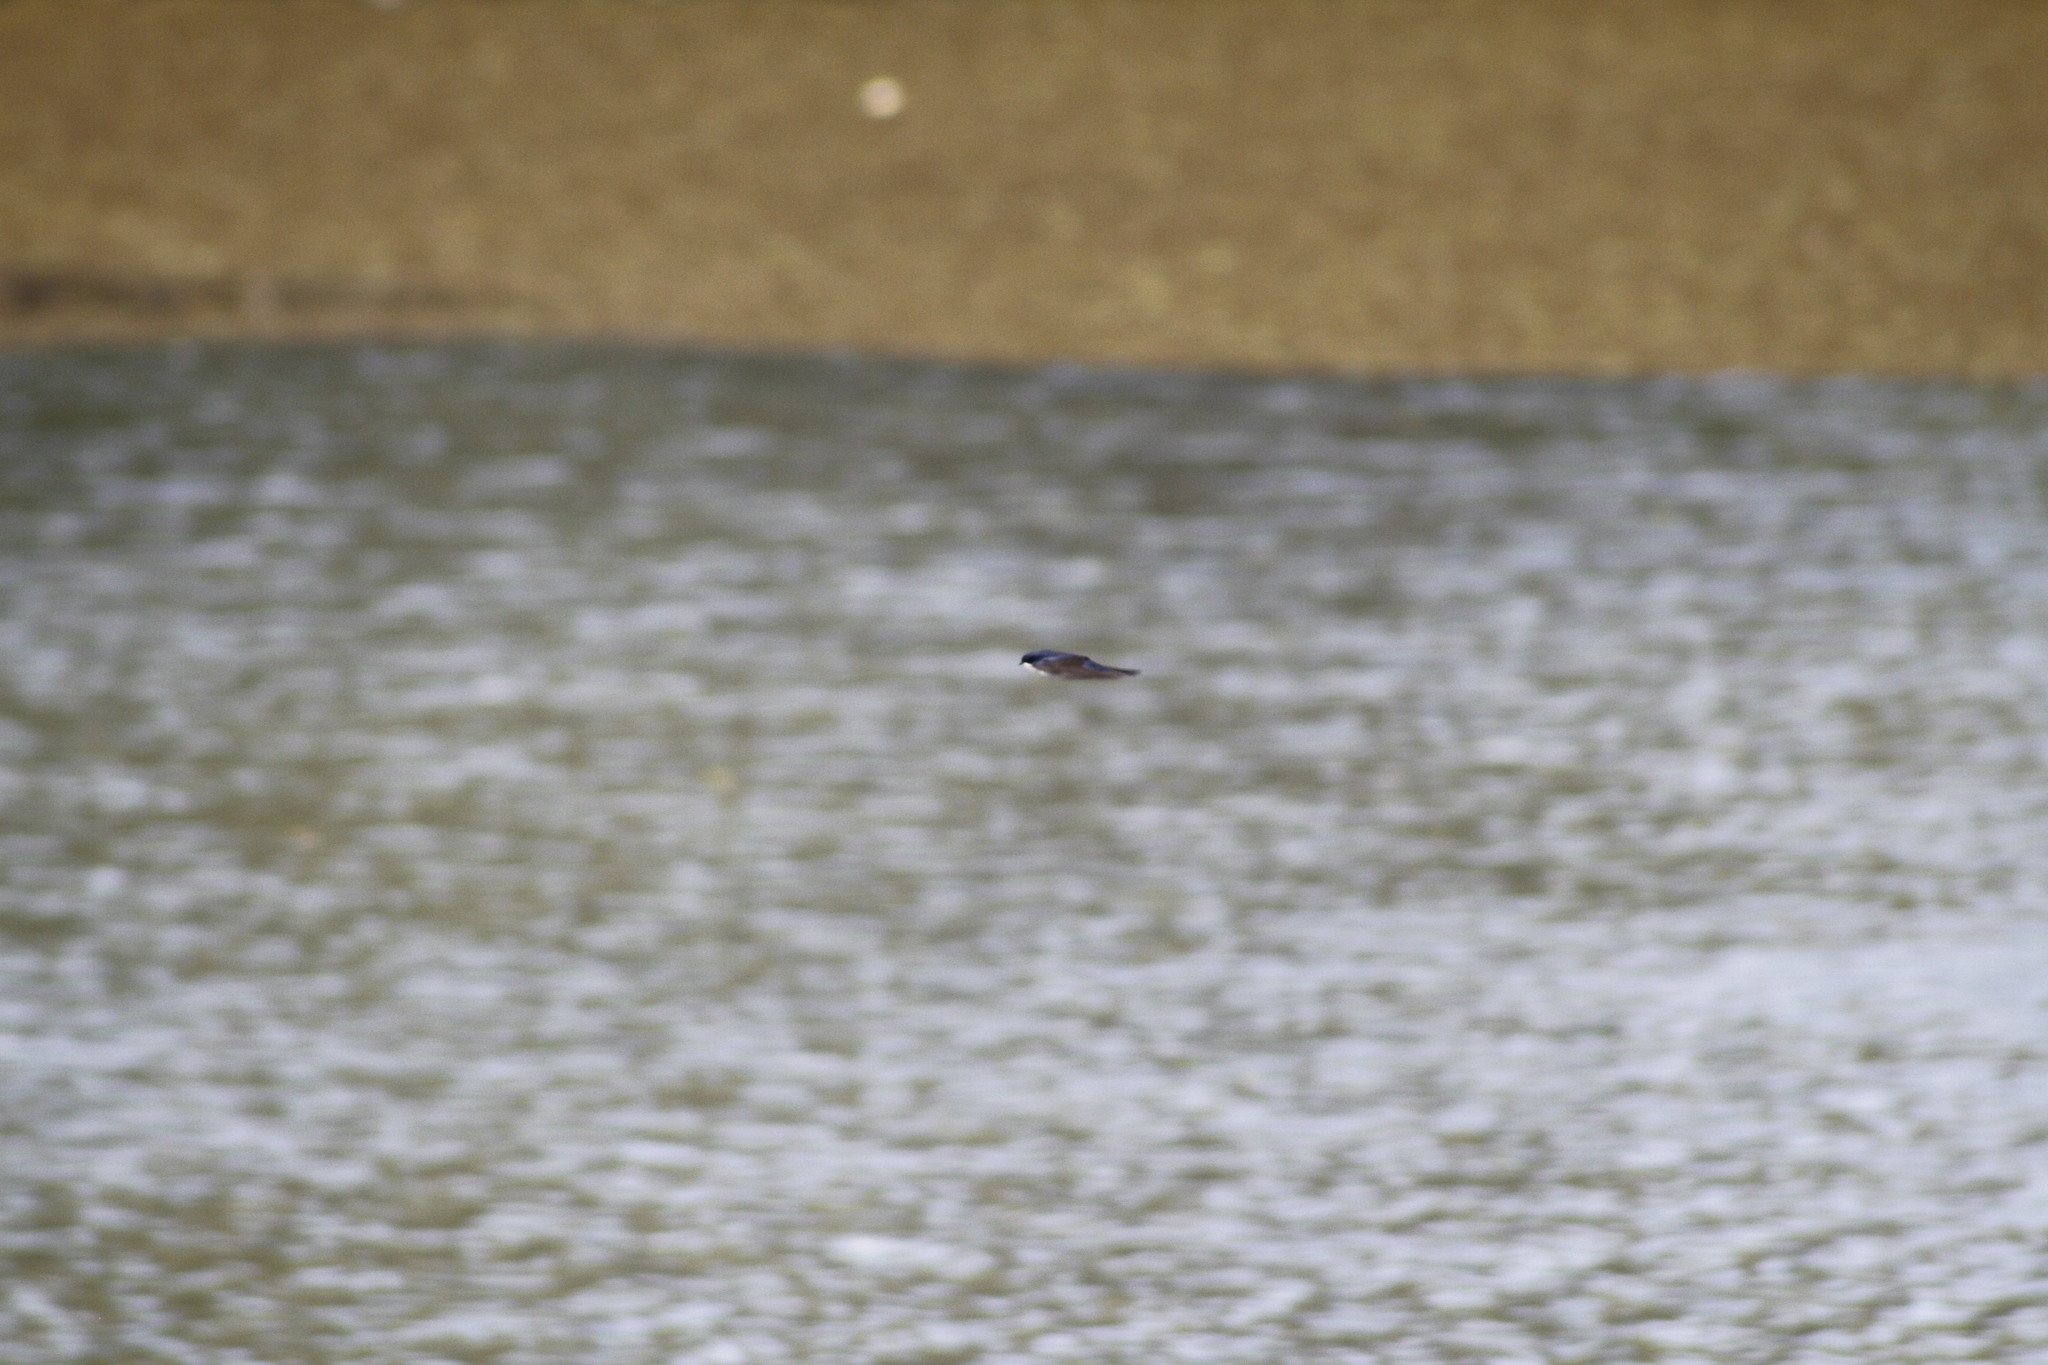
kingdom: Animalia
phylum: Chordata
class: Aves
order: Passeriformes
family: Hirundinidae
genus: Notiochelidon
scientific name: Notiochelidon cyanoleuca
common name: Blue-and-white swallow
